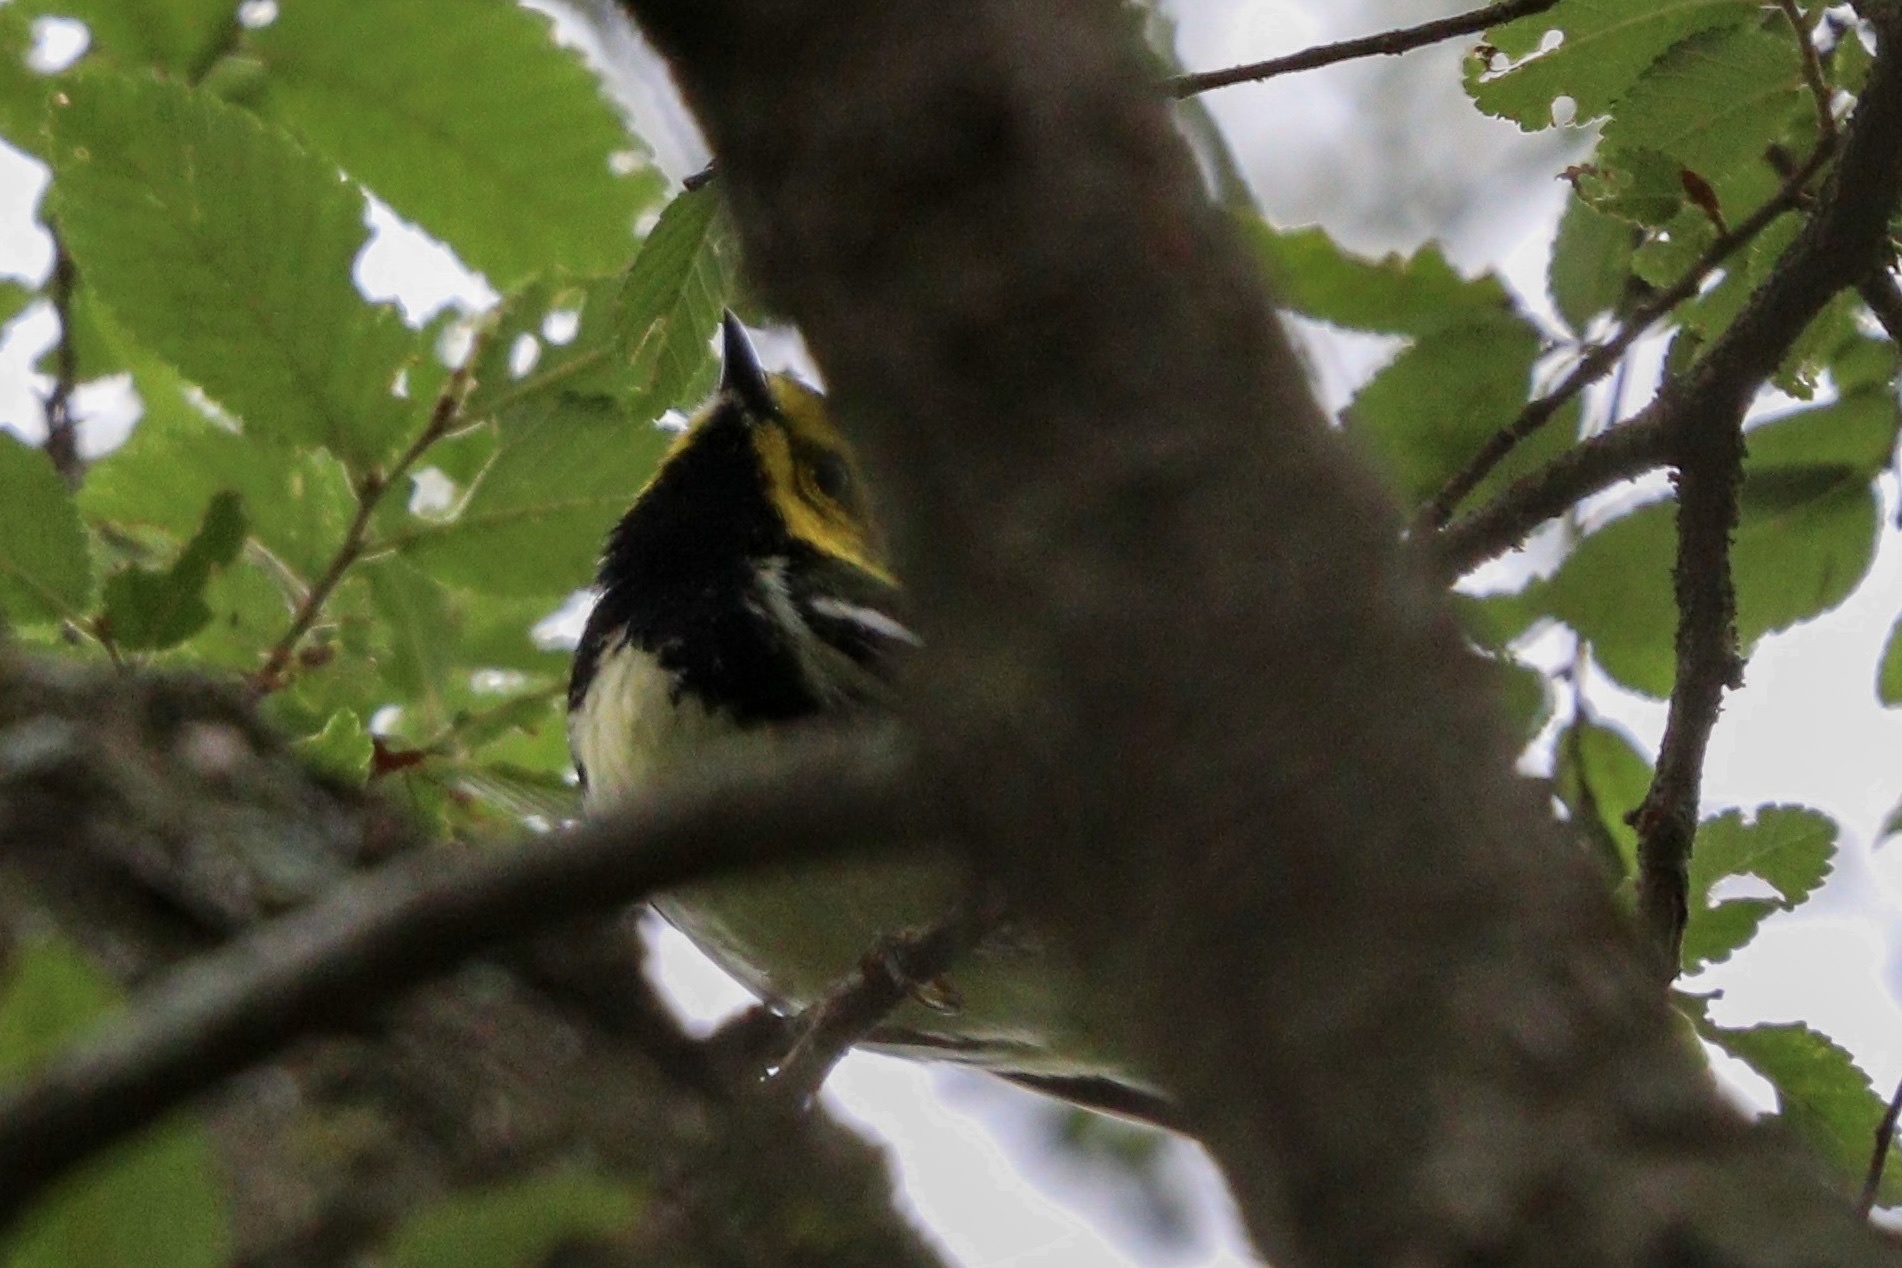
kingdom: Animalia
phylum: Chordata
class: Aves
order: Passeriformes
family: Parulidae
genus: Setophaga
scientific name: Setophaga virens
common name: Black-throated green warbler
